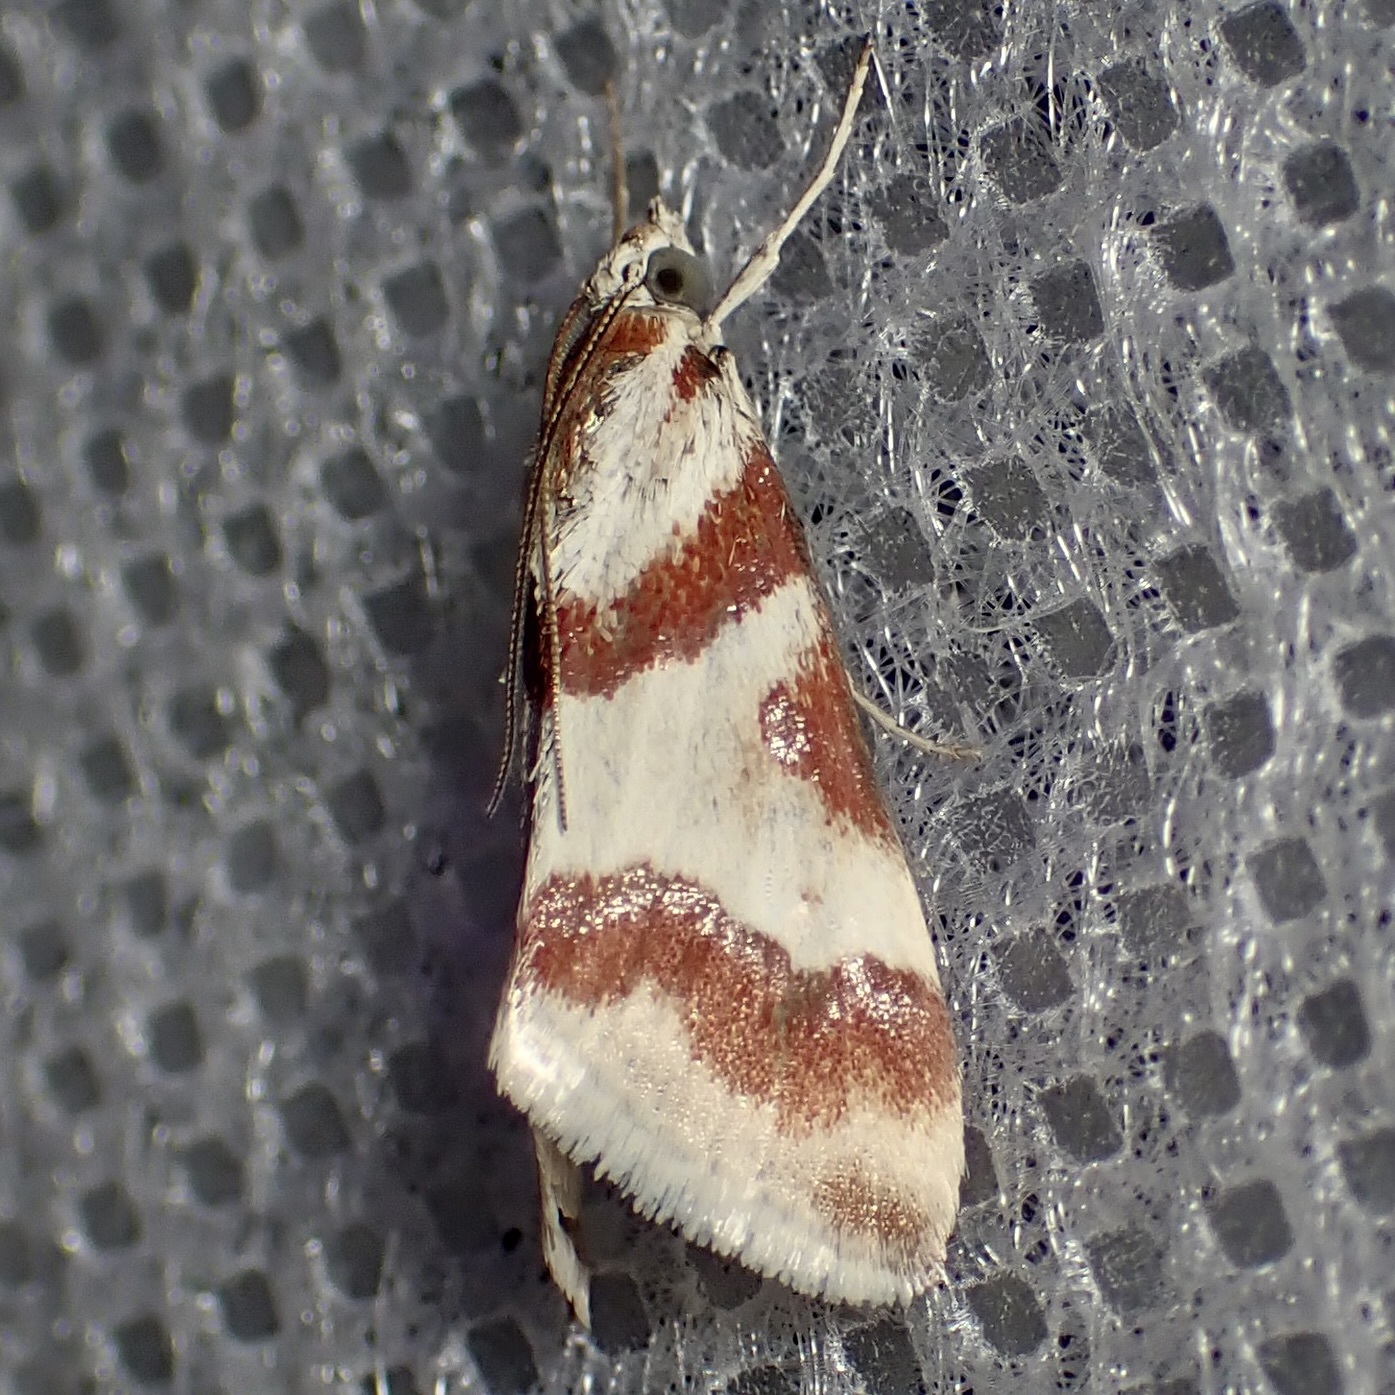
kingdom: Animalia
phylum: Arthropoda
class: Insecta
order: Lepidoptera
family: Crambidae
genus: Noctuelia
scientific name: Noctuelia Mimoschinia rufofascialis
